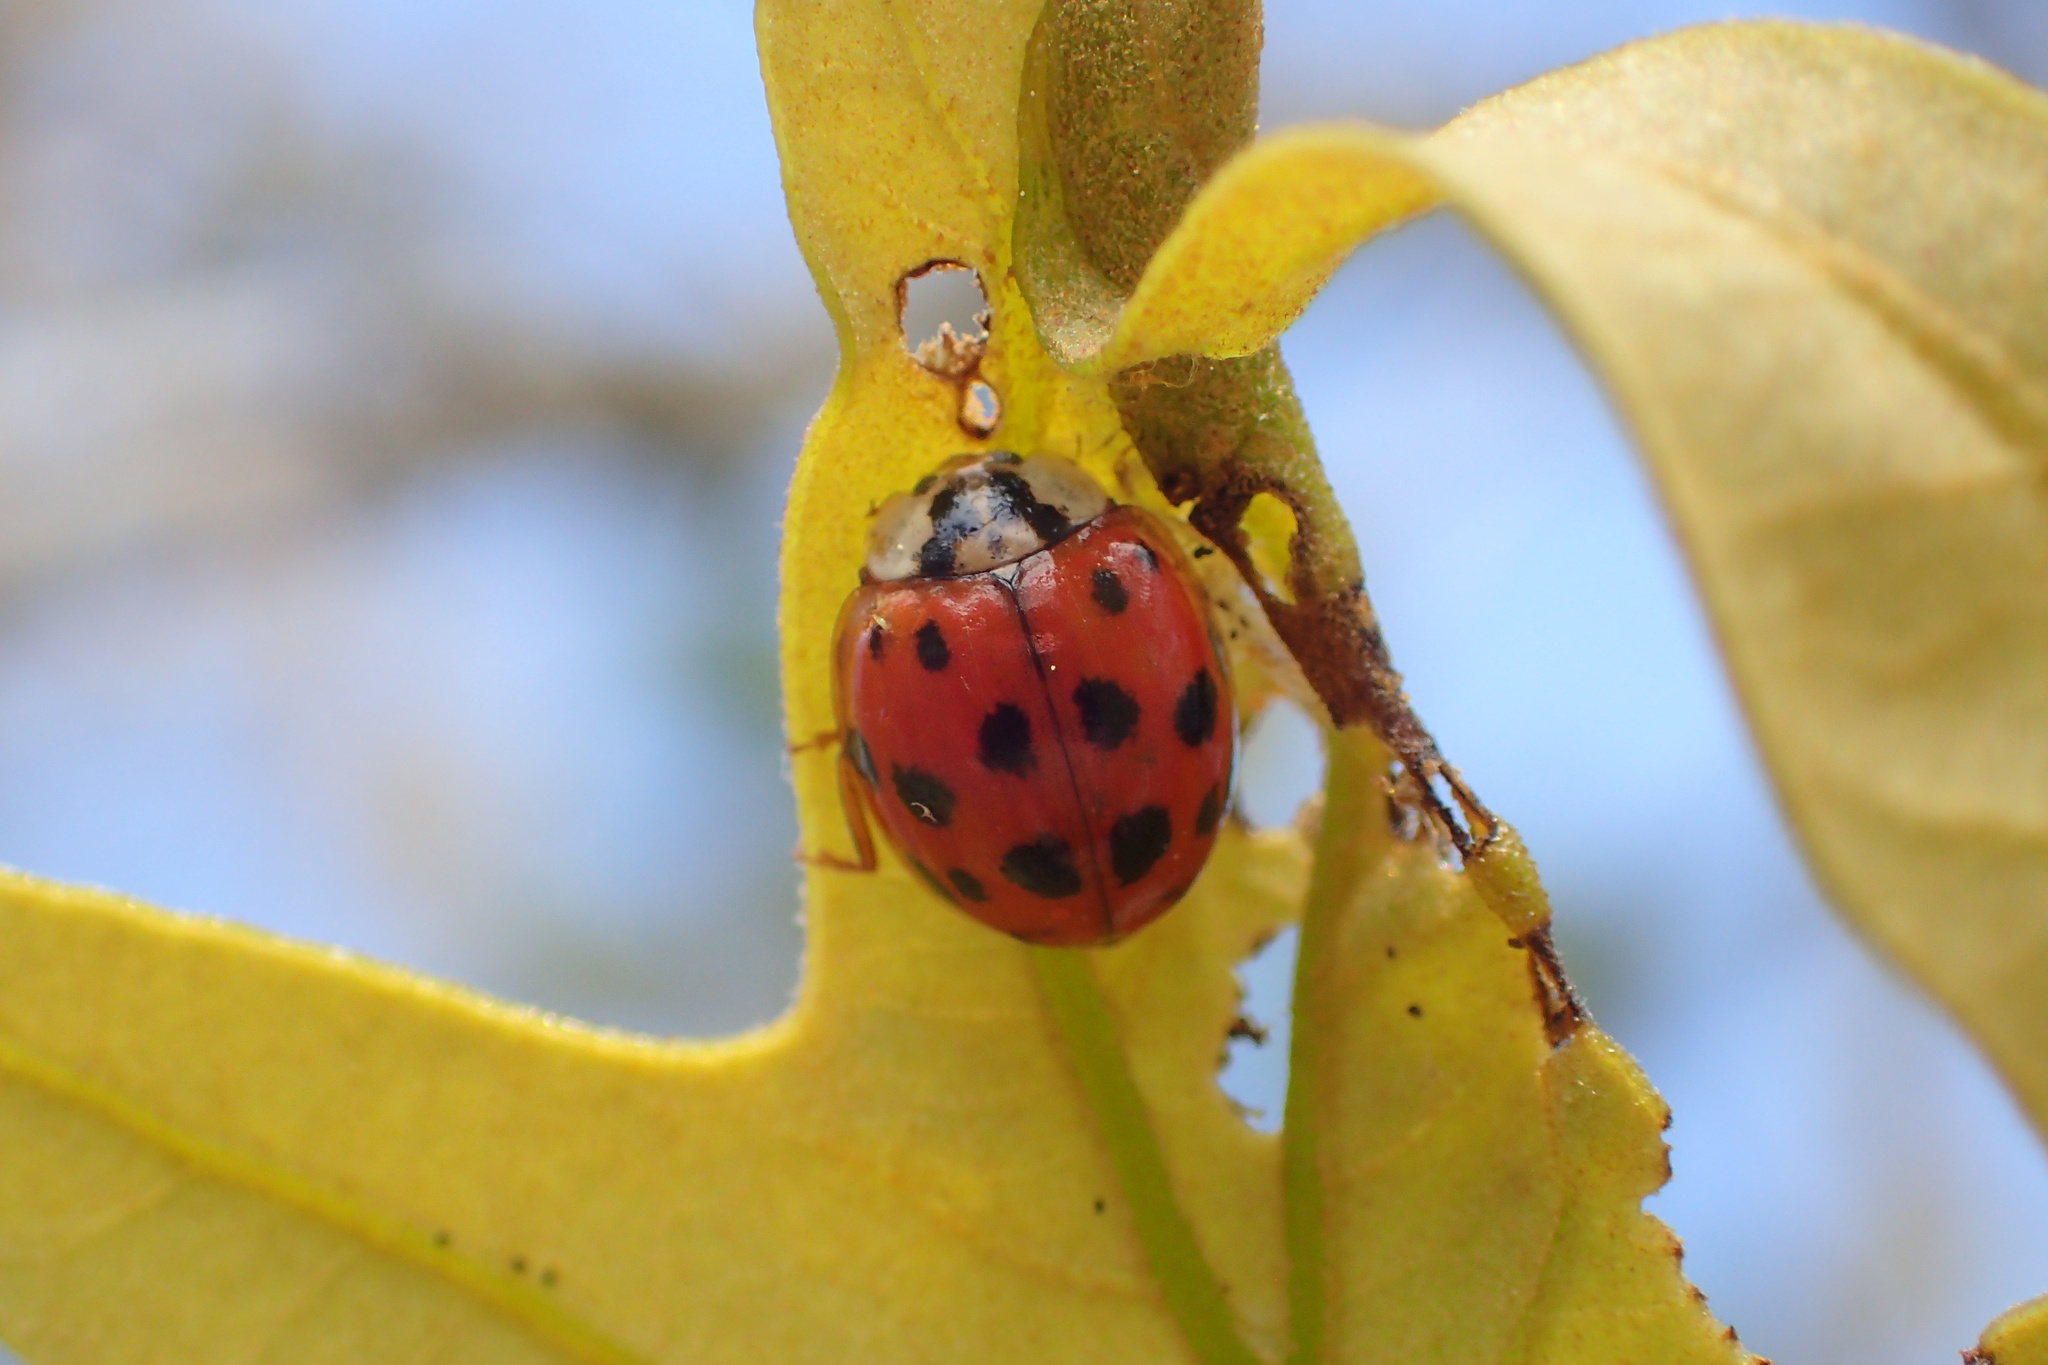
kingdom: Animalia
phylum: Arthropoda
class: Insecta
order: Coleoptera
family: Coccinellidae
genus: Harmonia
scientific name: Harmonia axyridis
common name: Harlequin ladybird
